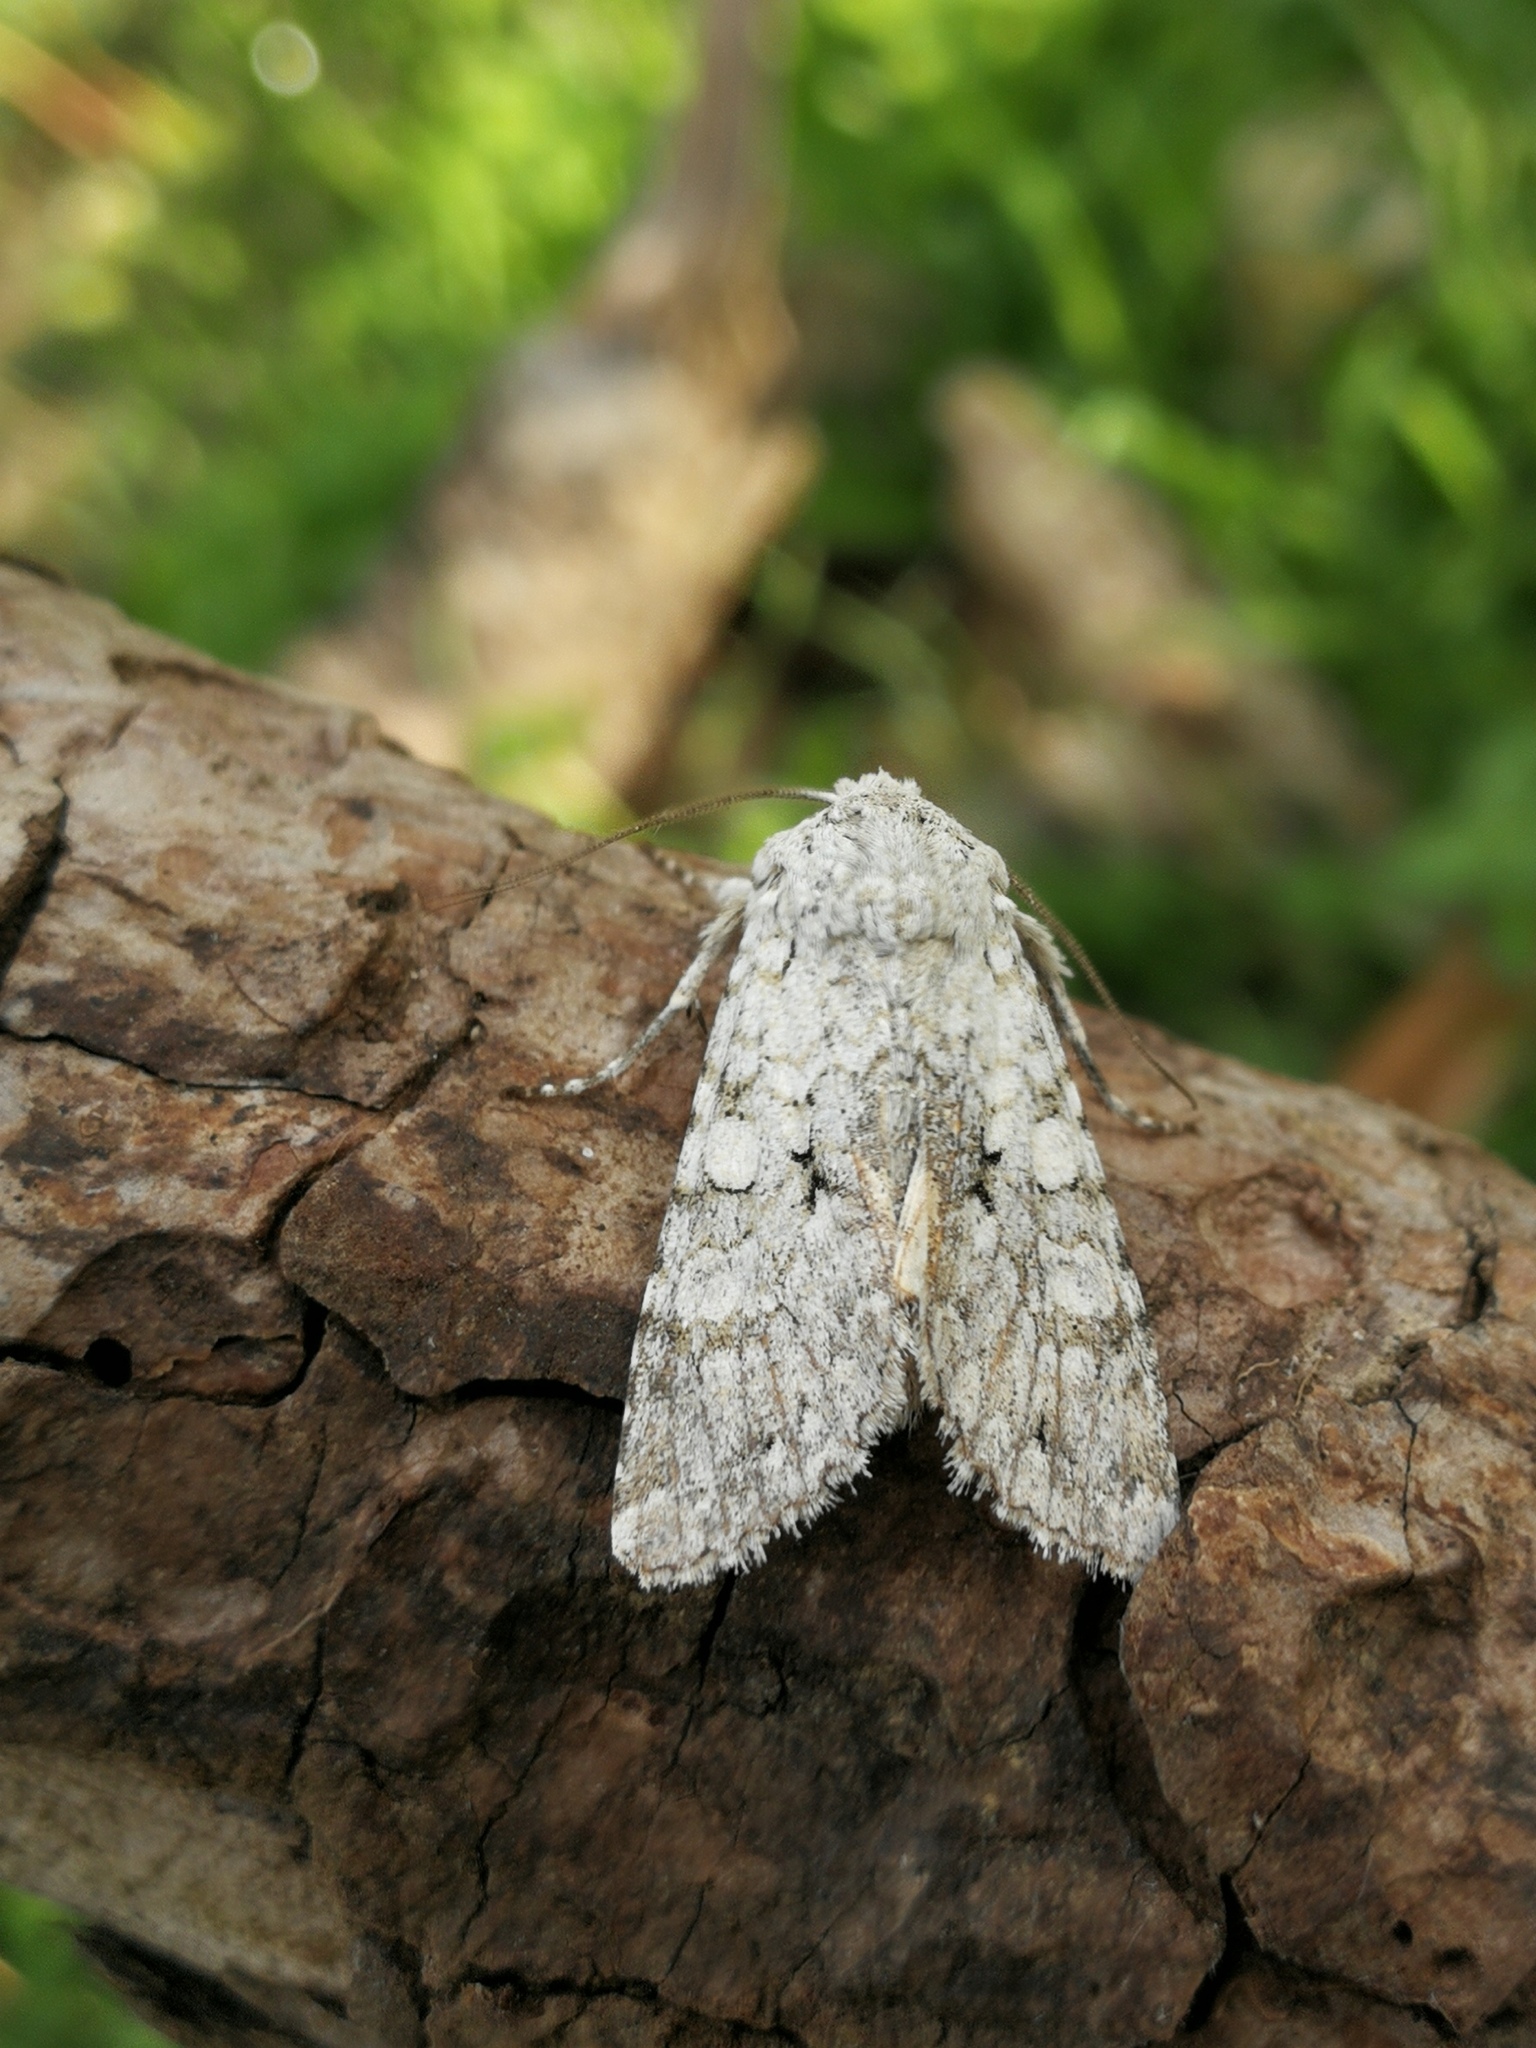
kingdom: Animalia
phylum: Arthropoda
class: Insecta
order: Lepidoptera
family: Noctuidae
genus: Antitype
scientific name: Antitype chi
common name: Grey chi
